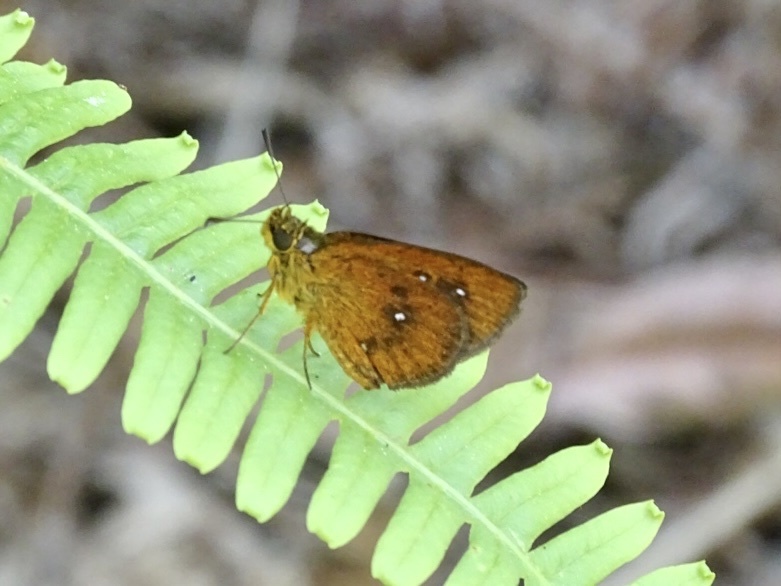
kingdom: Animalia
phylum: Arthropoda
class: Insecta
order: Lepidoptera
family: Hesperiidae
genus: Iambrix
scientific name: Iambrix salsala
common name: Chestnut bob
